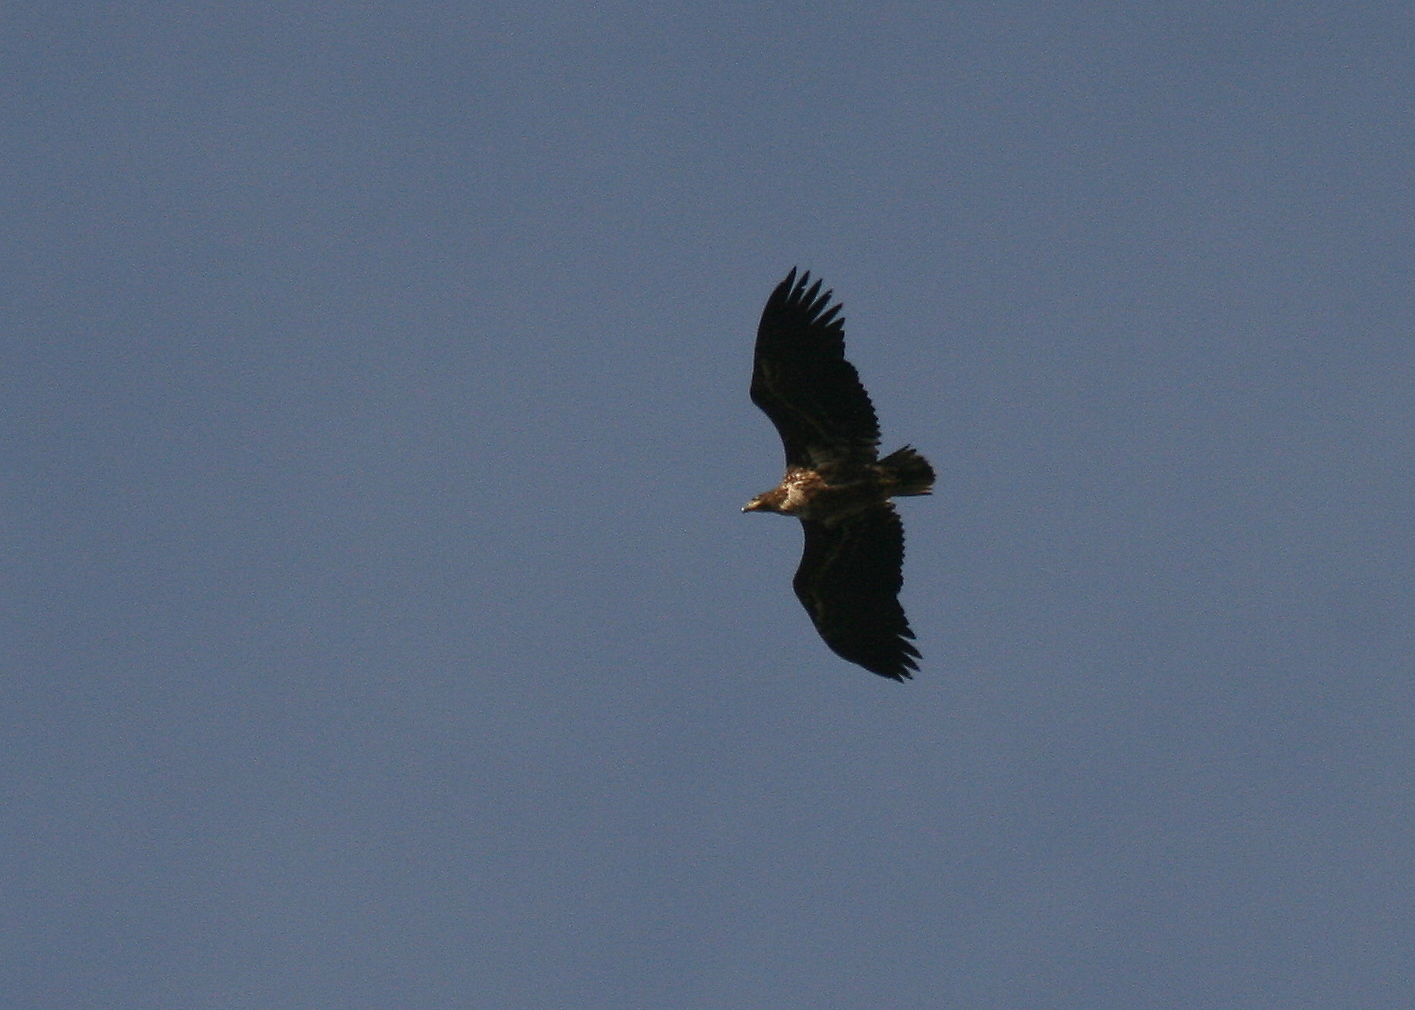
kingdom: Animalia
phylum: Chordata
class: Aves
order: Accipitriformes
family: Accipitridae
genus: Haliaeetus
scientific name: Haliaeetus albicilla
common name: White-tailed eagle
